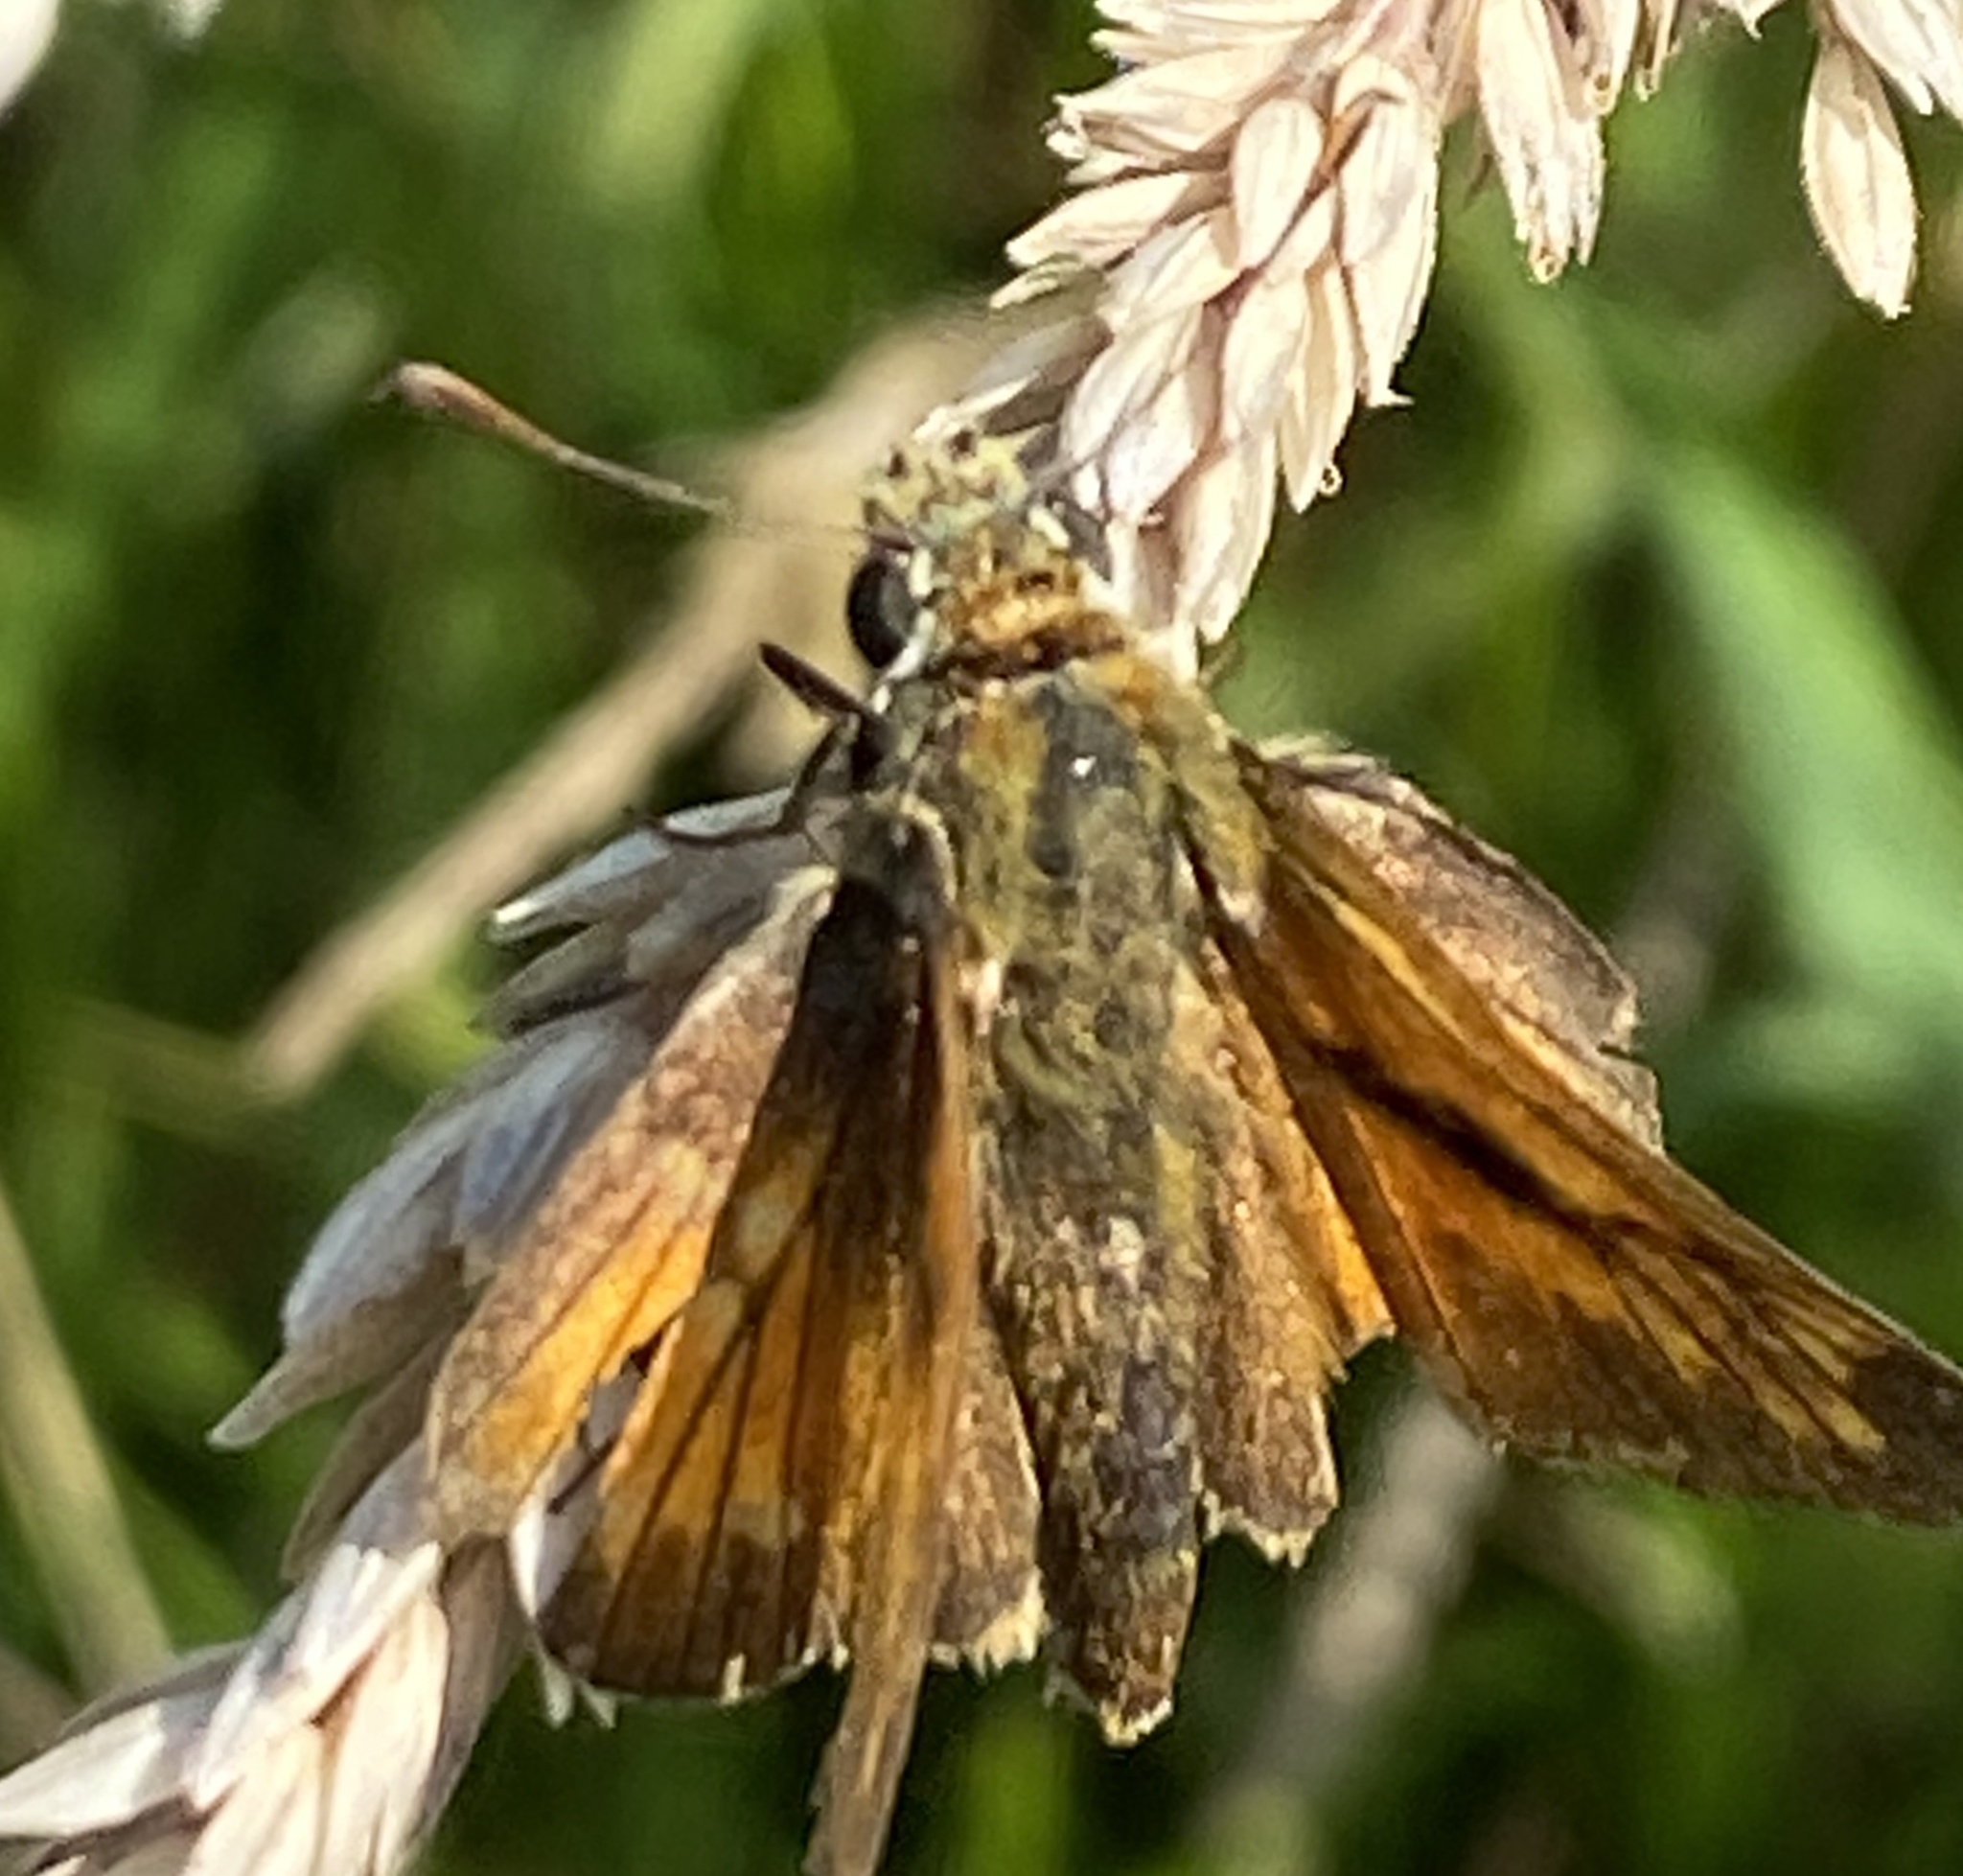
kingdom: Animalia
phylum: Arthropoda
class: Insecta
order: Lepidoptera
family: Hesperiidae
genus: Ochlodes
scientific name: Ochlodes venata
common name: Large skipper
